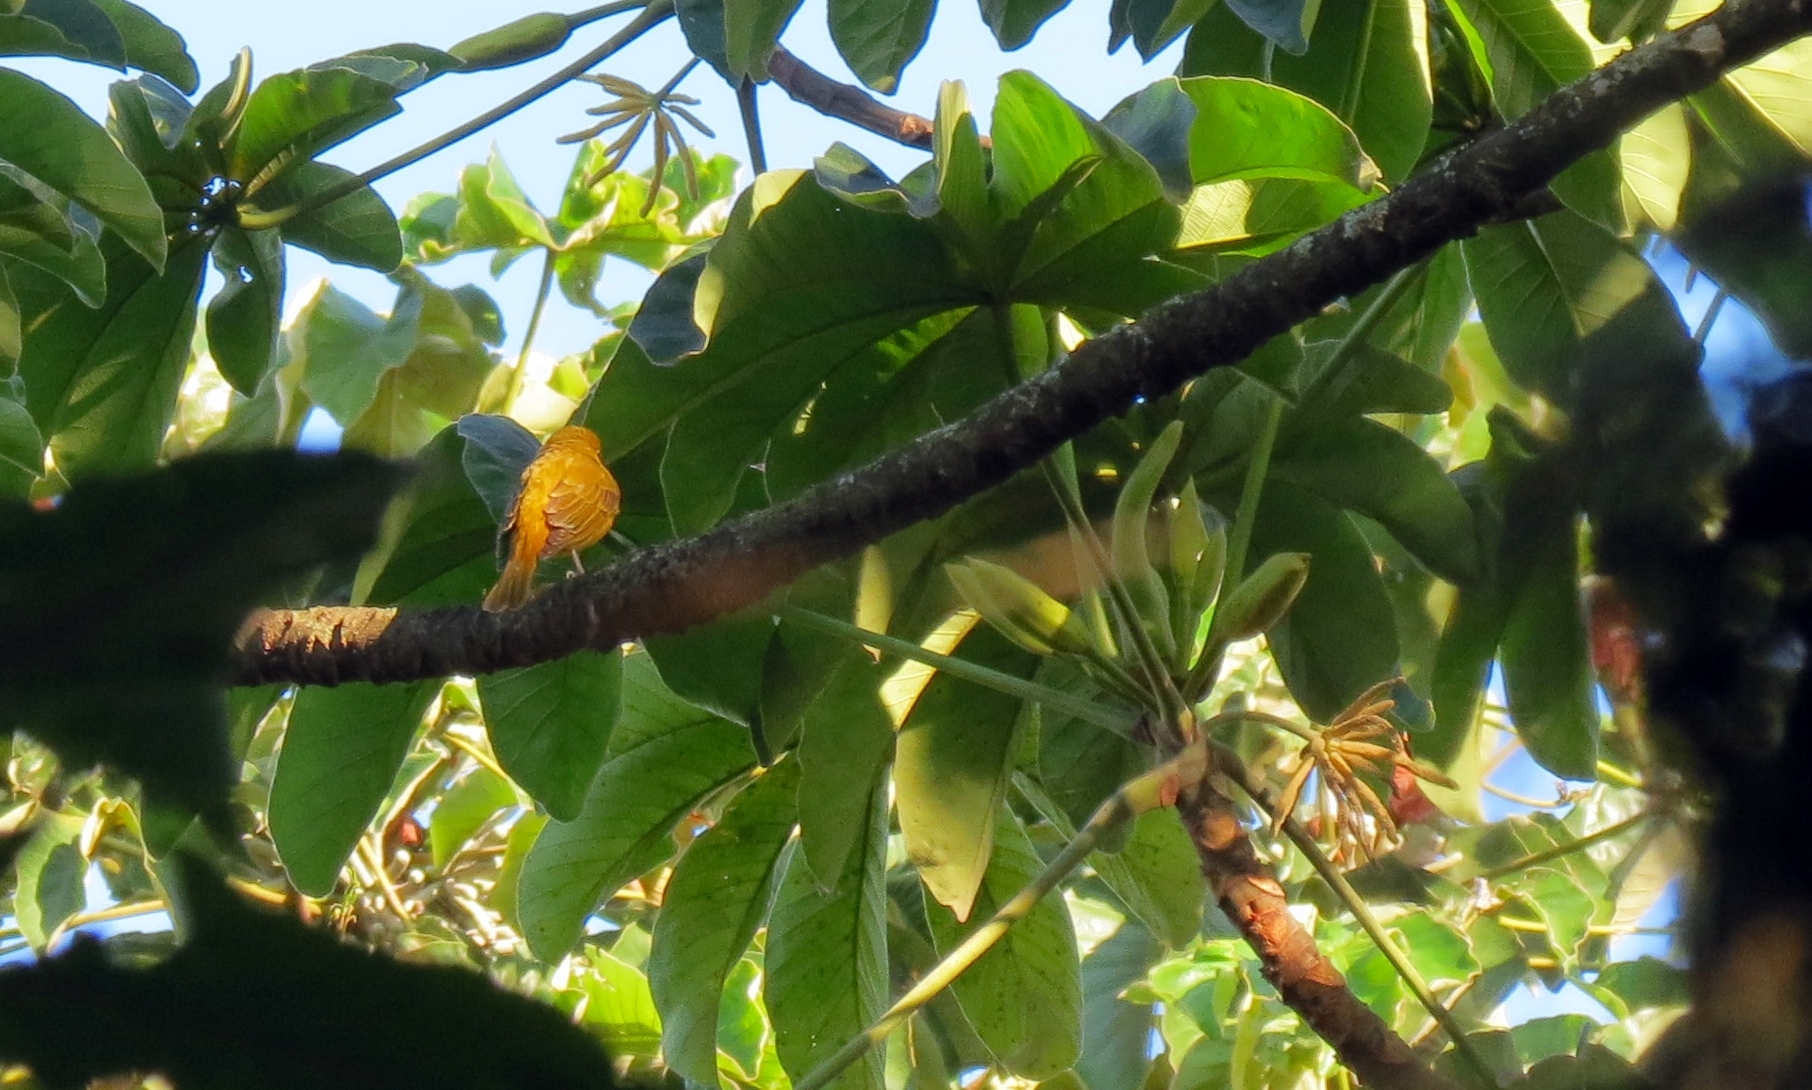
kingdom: Animalia
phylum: Chordata
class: Aves
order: Passeriformes
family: Cardinalidae
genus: Piranga
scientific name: Piranga rubra
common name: Summer tanager
